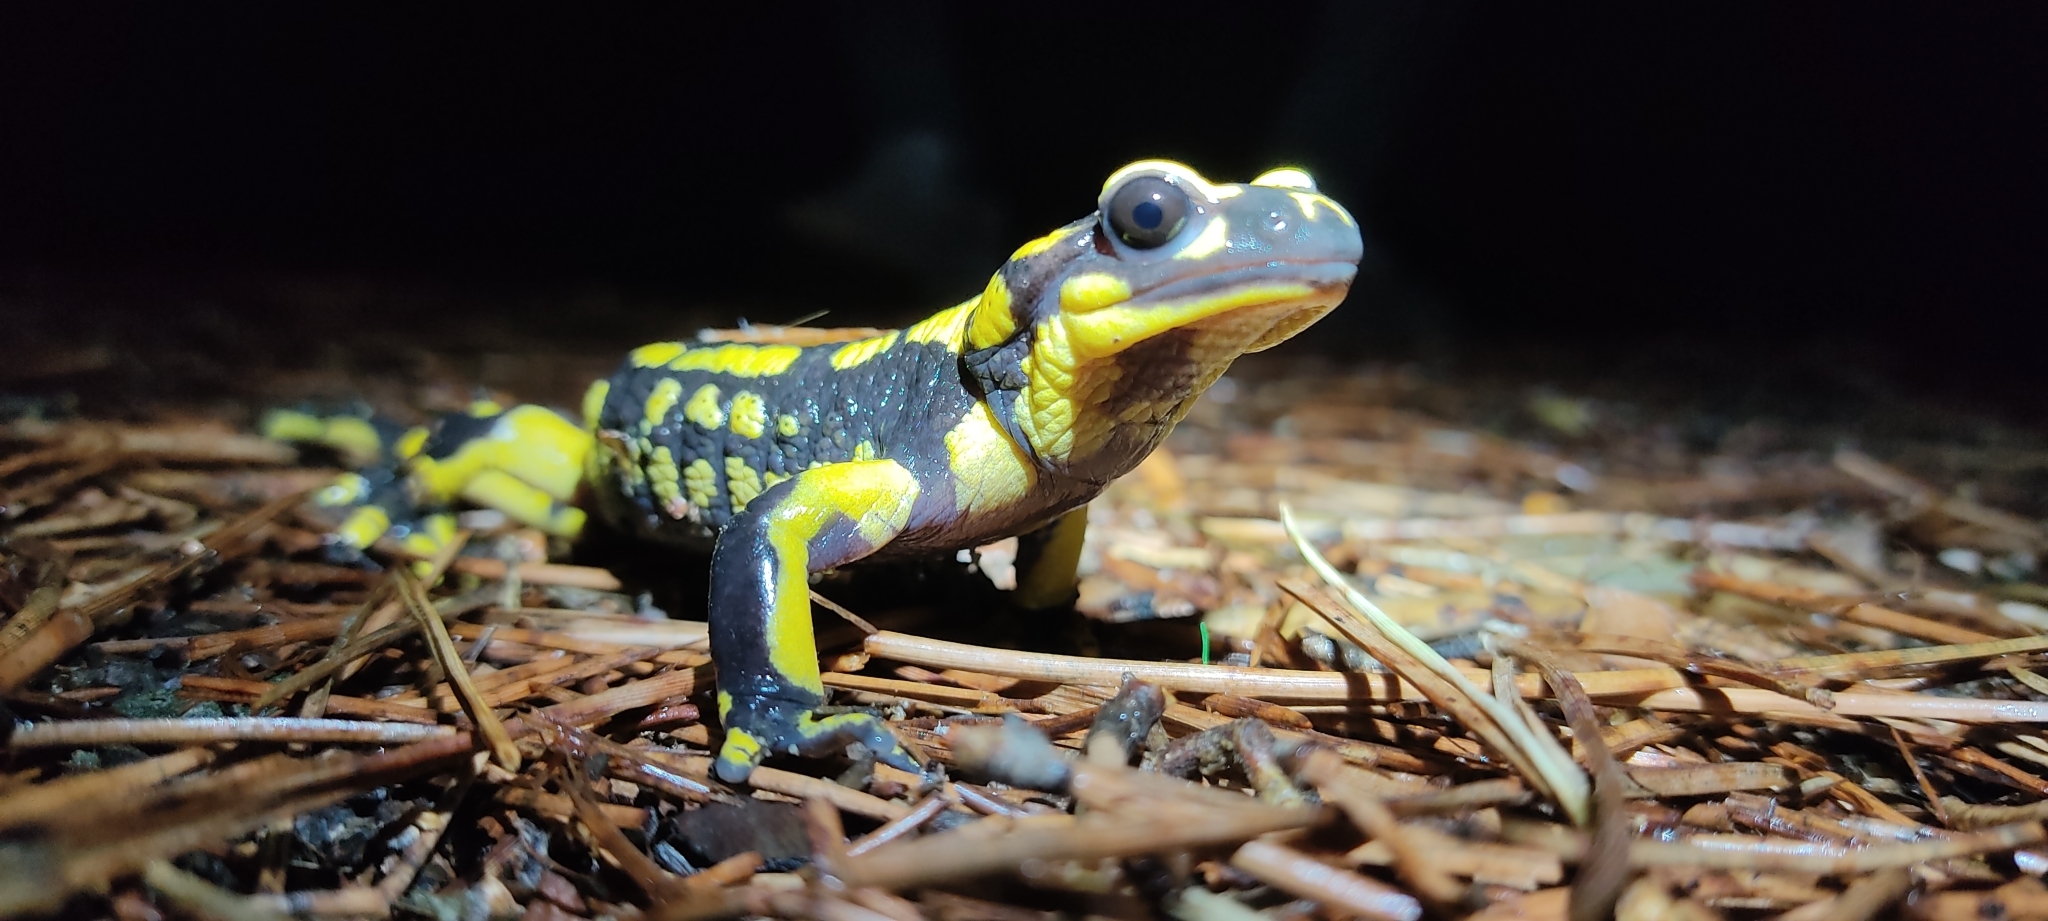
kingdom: Animalia
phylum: Chordata
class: Amphibia
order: Caudata
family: Salamandridae
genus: Salamandra
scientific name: Salamandra salamandra
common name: Fire salamander
